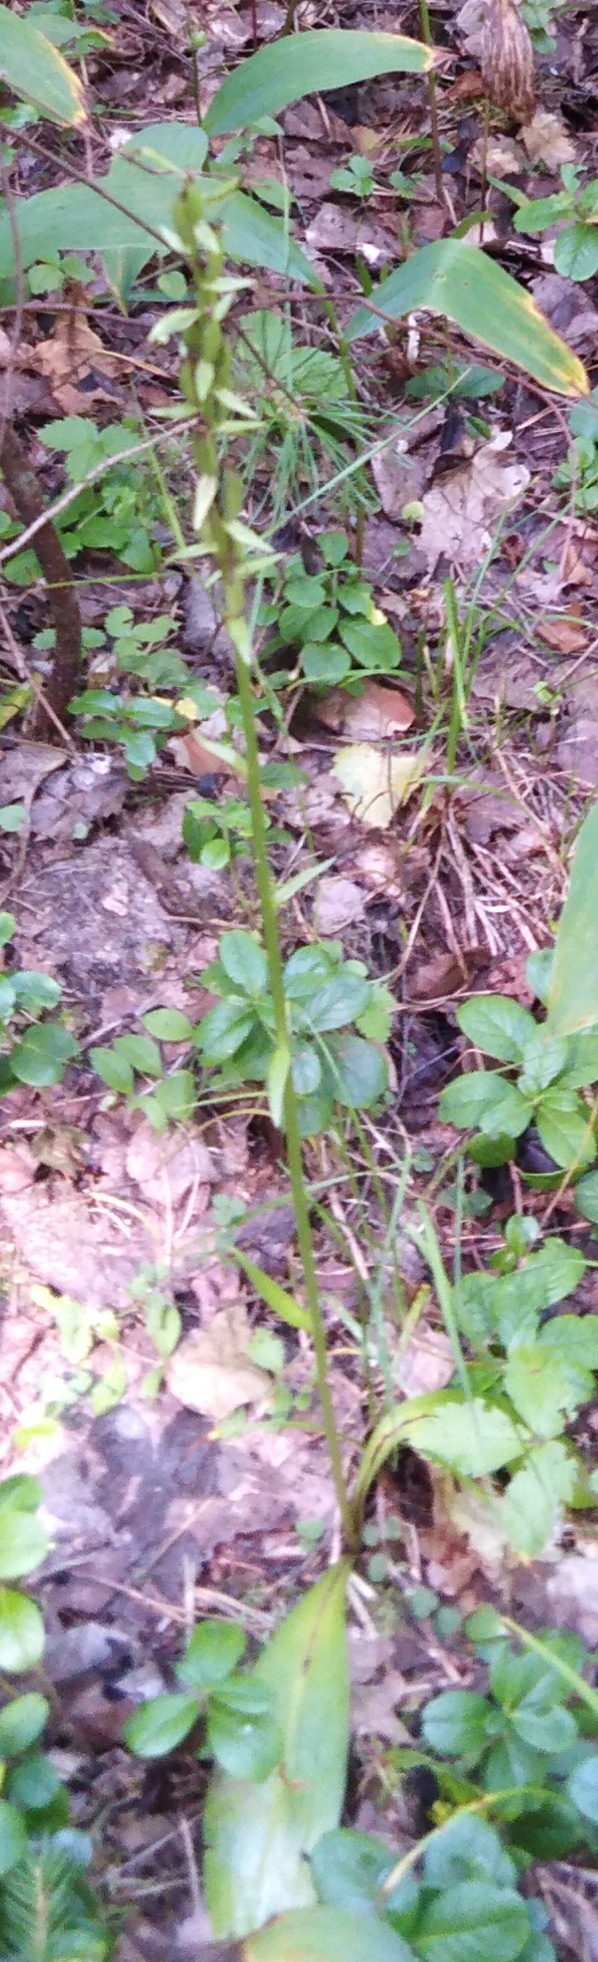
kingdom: Plantae
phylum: Tracheophyta
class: Liliopsida
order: Asparagales
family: Orchidaceae
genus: Platanthera
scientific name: Platanthera bifolia
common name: Lesser butterfly-orchid
